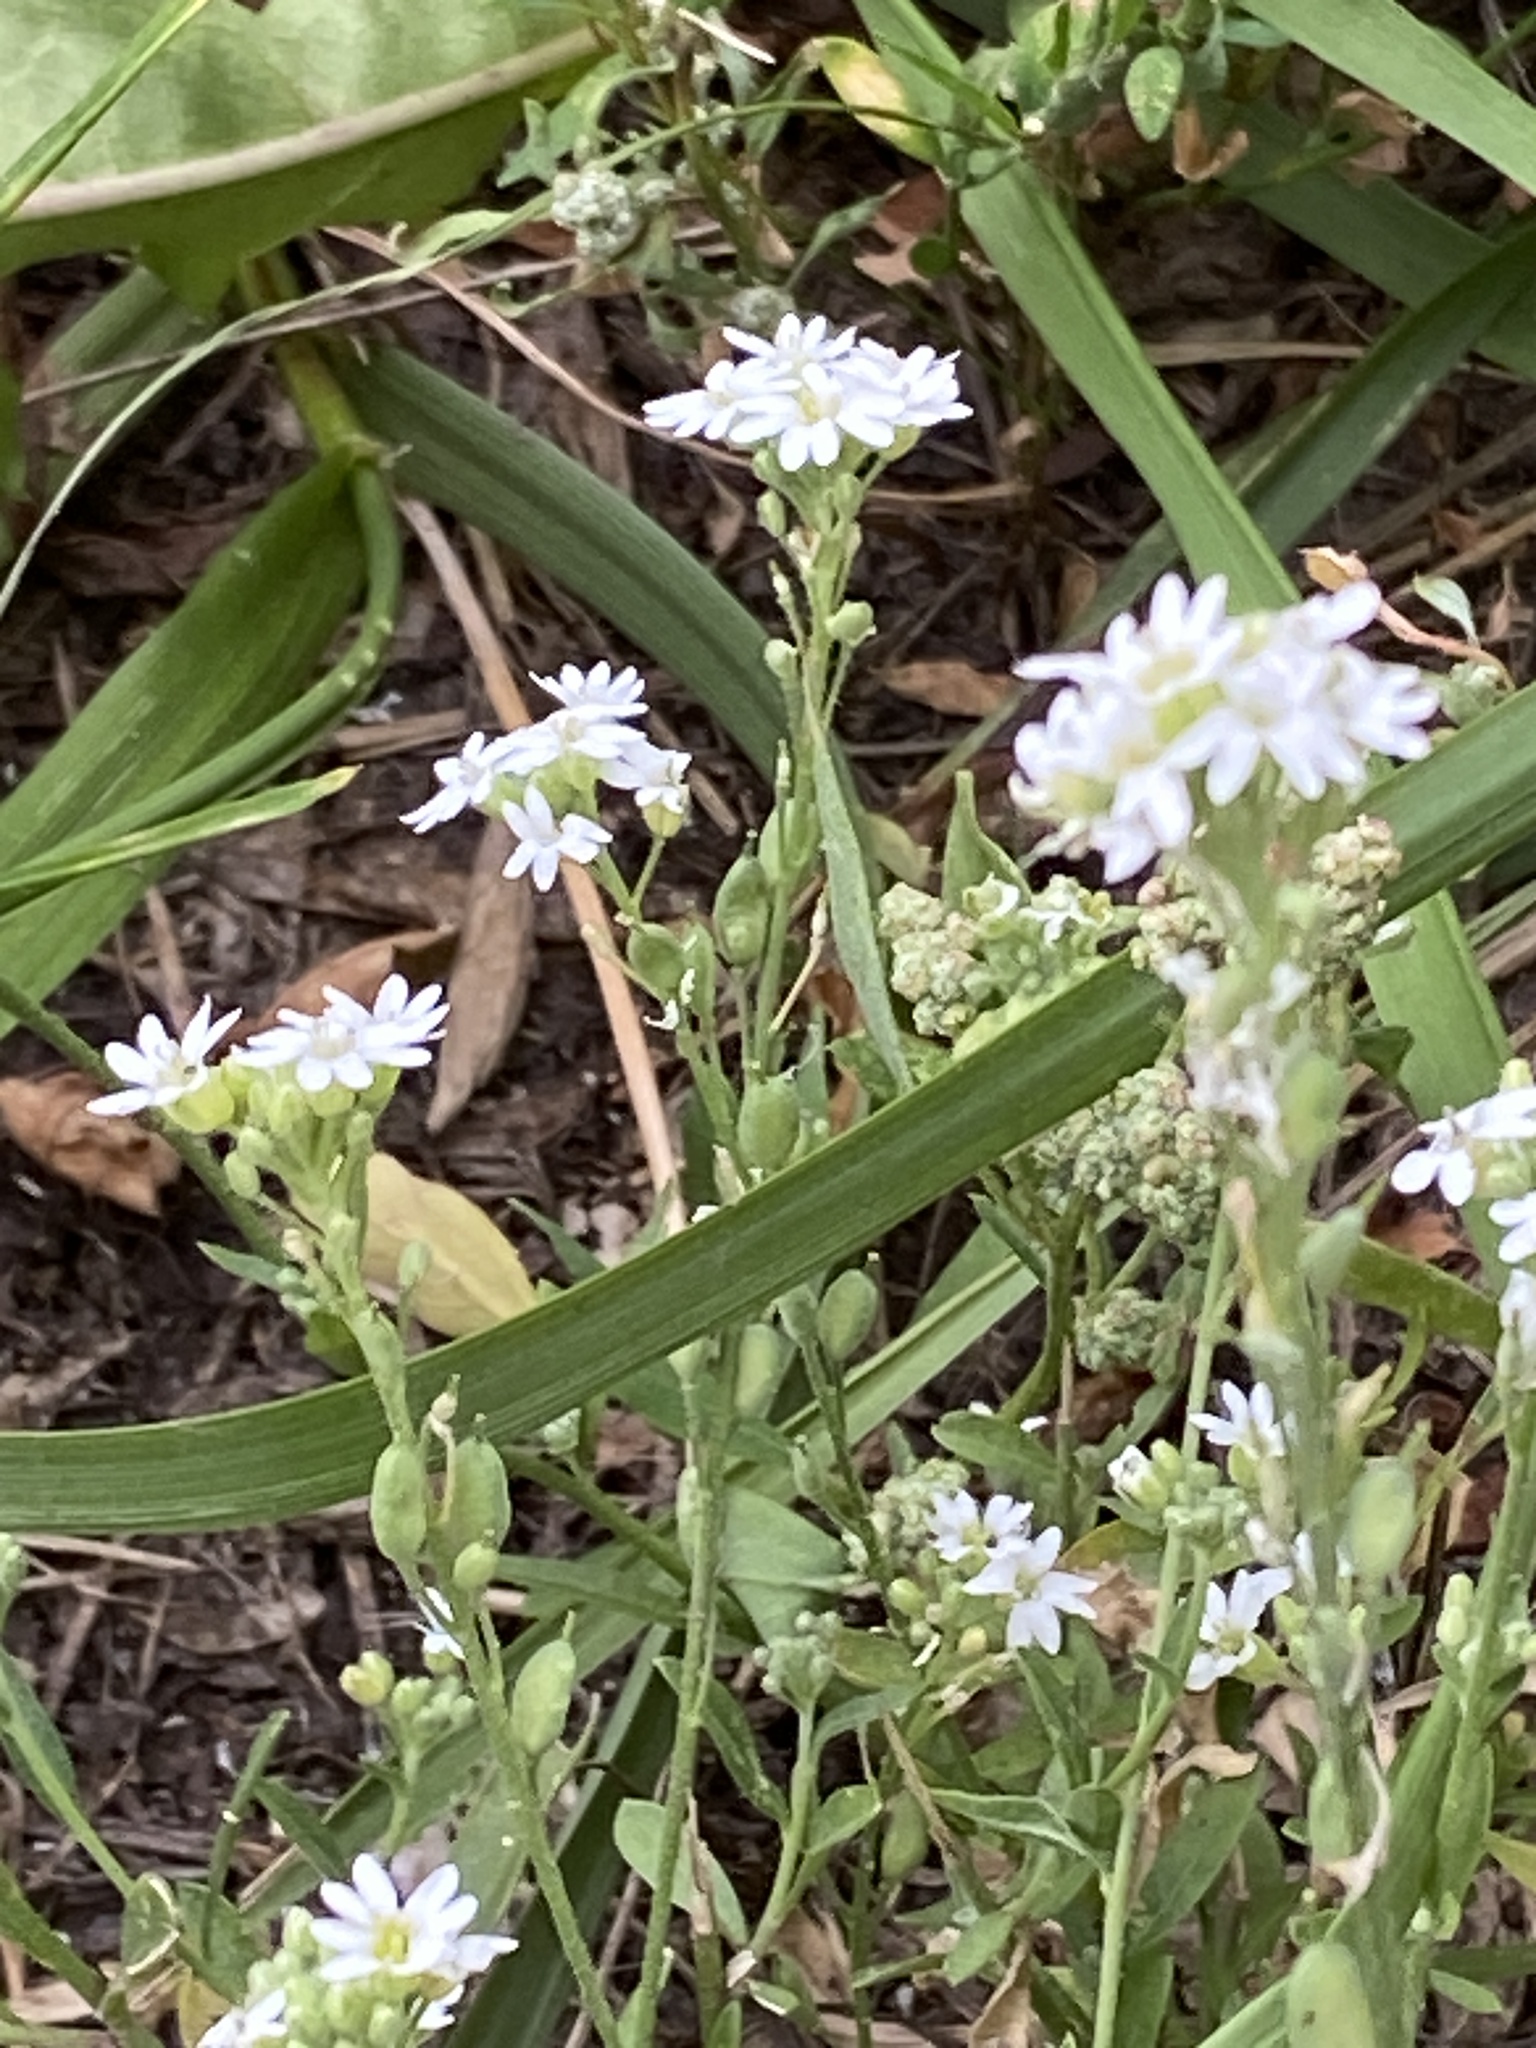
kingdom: Plantae
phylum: Tracheophyta
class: Magnoliopsida
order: Brassicales
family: Brassicaceae
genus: Berteroa
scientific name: Berteroa incana
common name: Hoary alison
